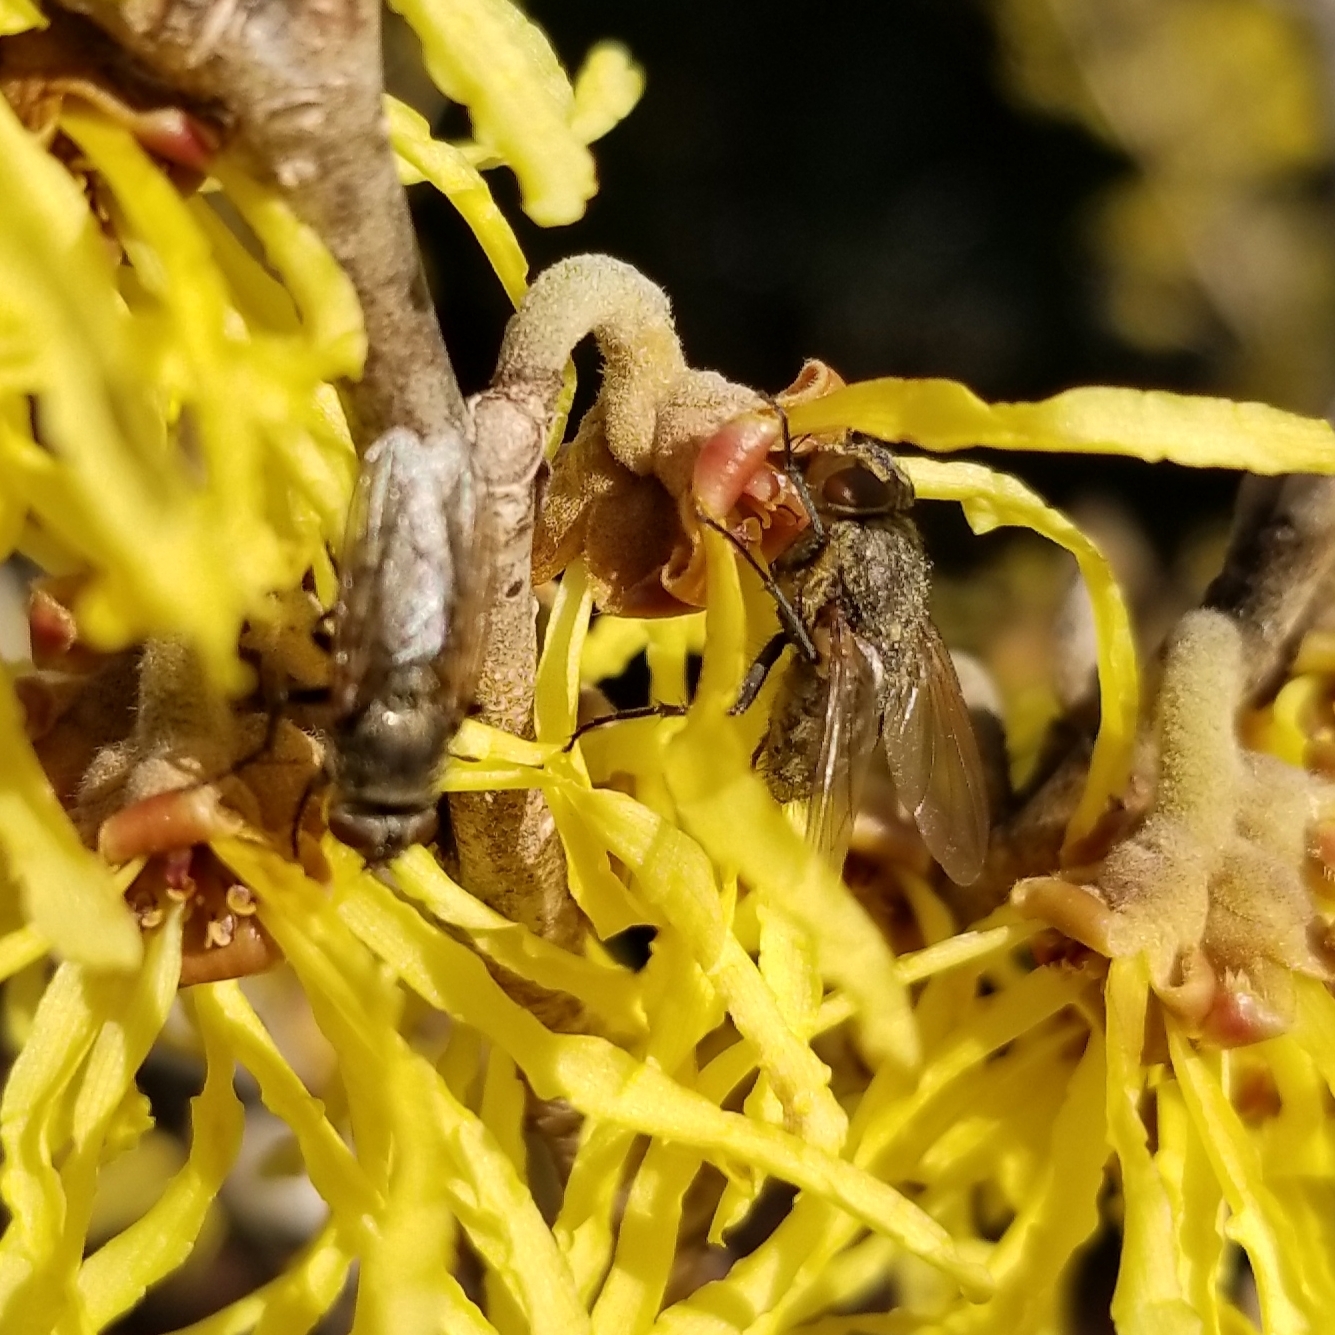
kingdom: Animalia
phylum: Arthropoda
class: Insecta
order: Diptera
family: Polleniidae
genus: Pollenia
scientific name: Pollenia
